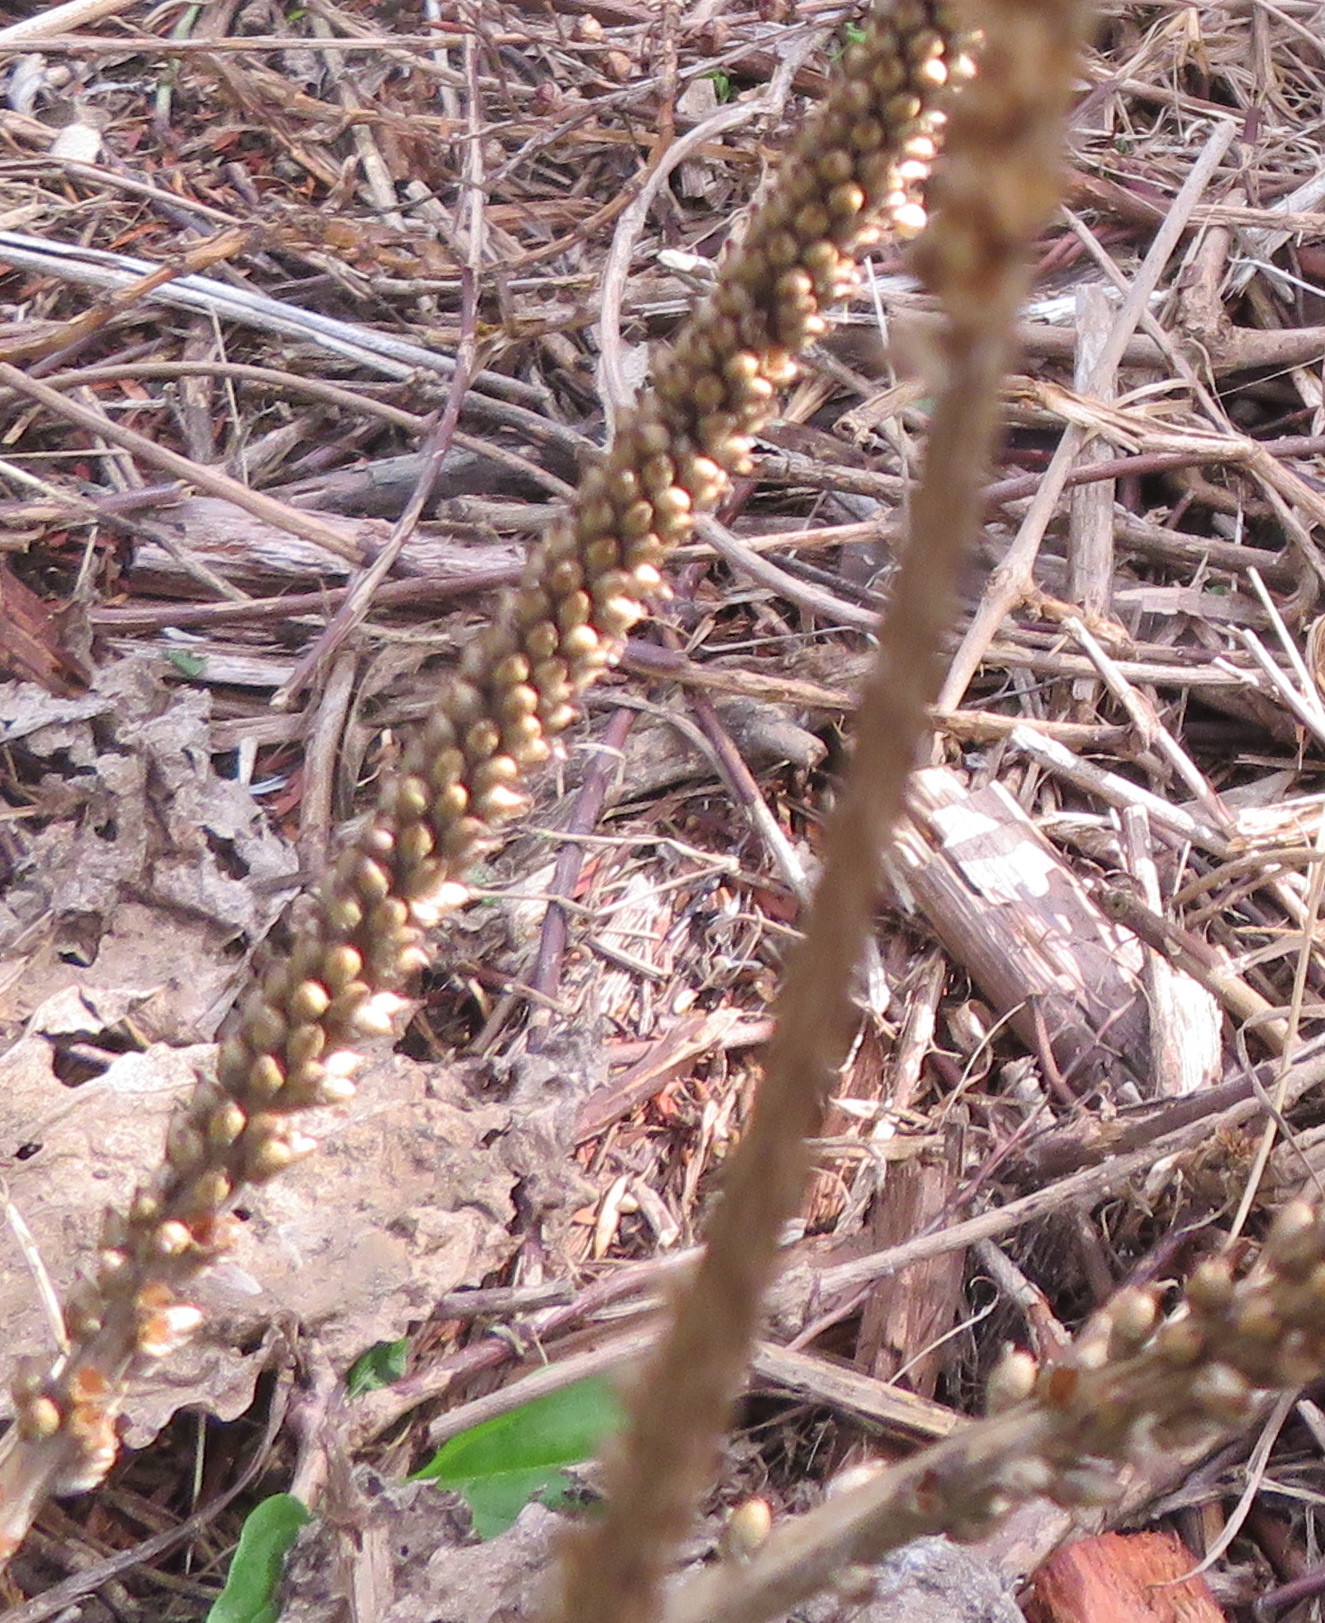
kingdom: Plantae
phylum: Tracheophyta
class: Magnoliopsida
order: Lamiales
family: Plantaginaceae
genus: Plantago
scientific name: Plantago major
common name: Common plantain
